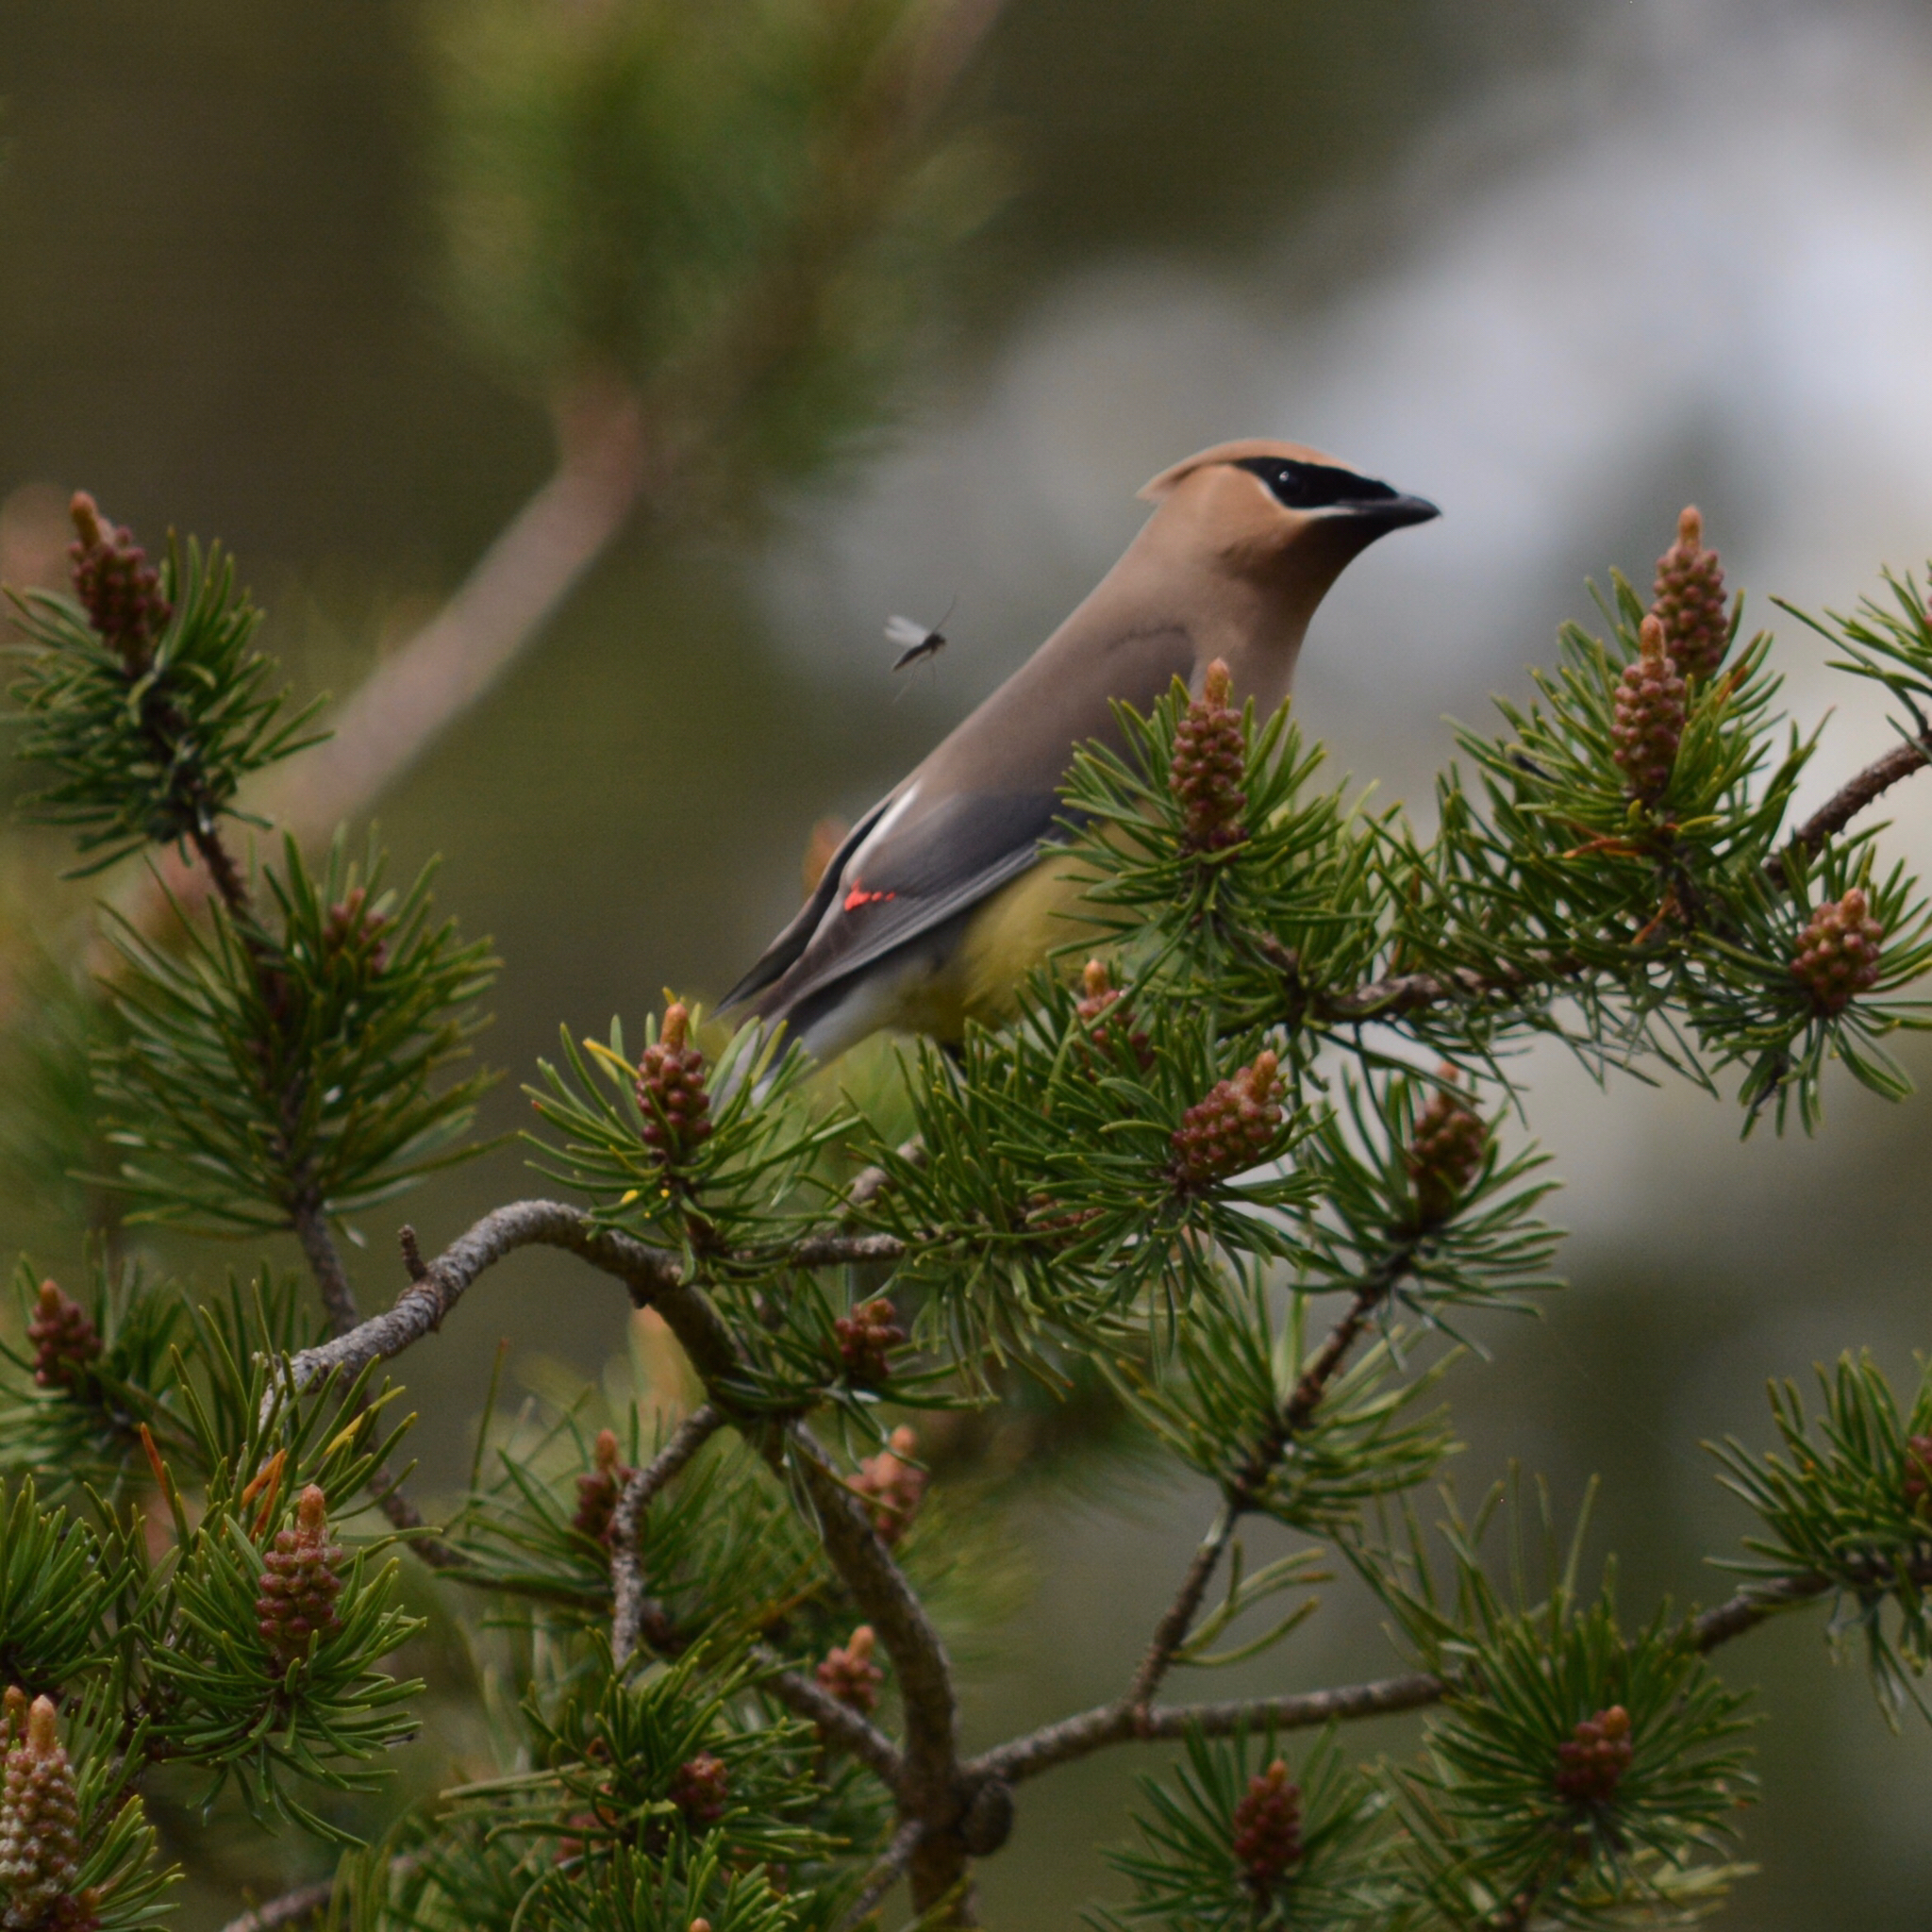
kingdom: Animalia
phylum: Chordata
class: Aves
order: Passeriformes
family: Bombycillidae
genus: Bombycilla
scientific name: Bombycilla cedrorum
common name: Cedar waxwing
